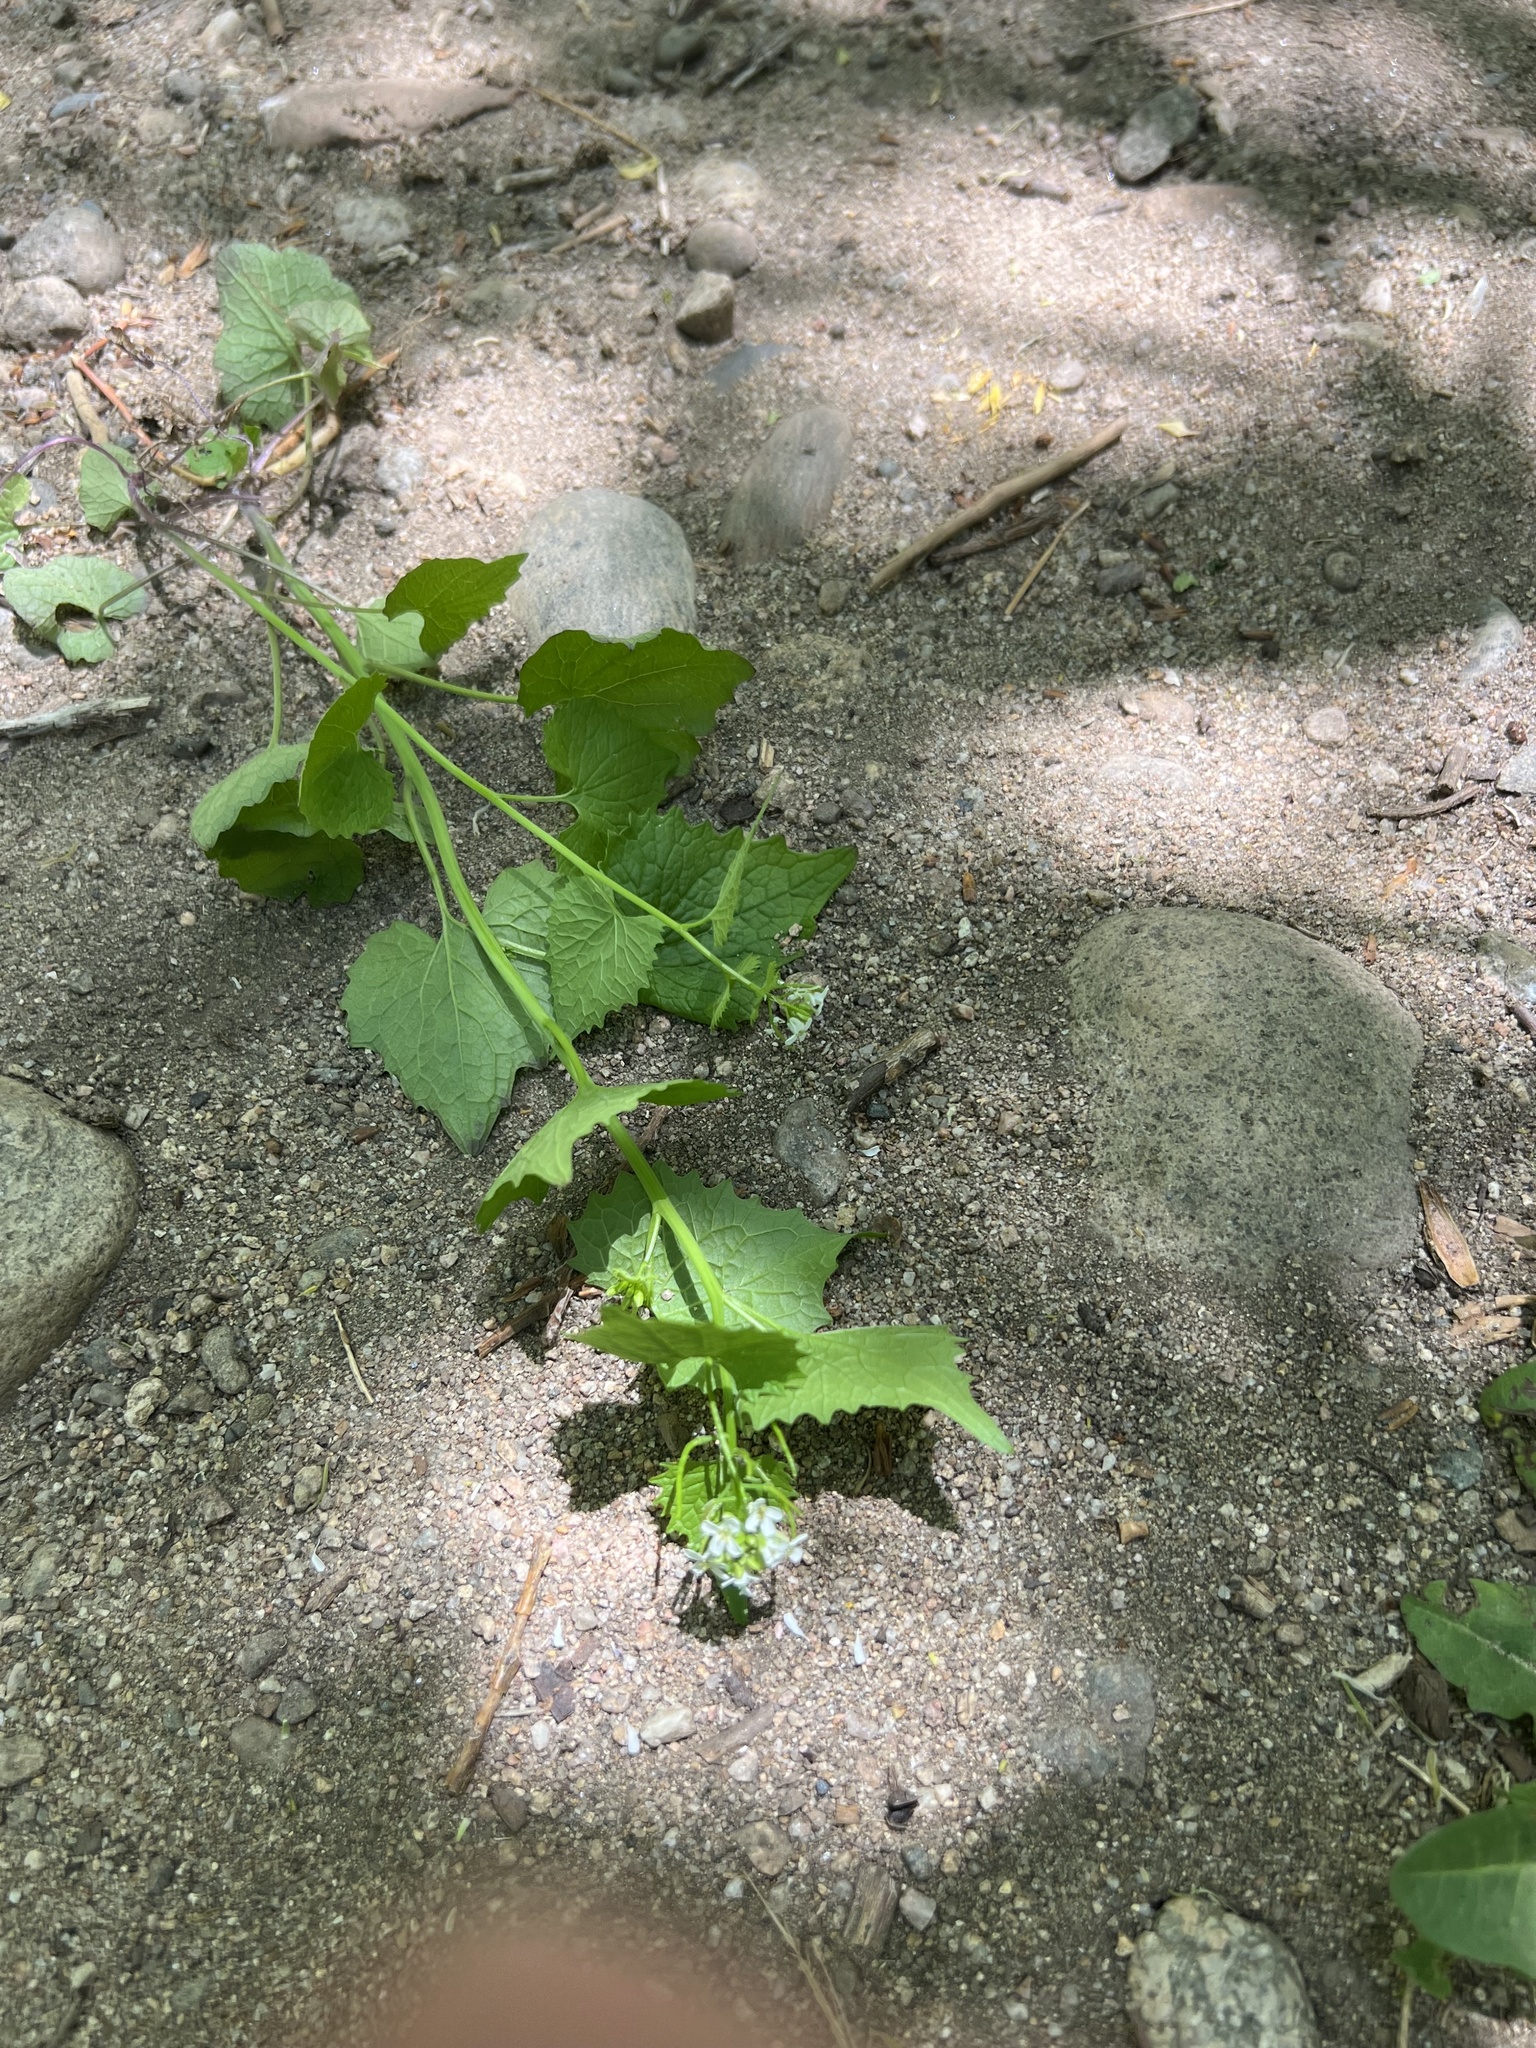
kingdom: Plantae
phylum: Tracheophyta
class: Magnoliopsida
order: Brassicales
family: Brassicaceae
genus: Alliaria
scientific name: Alliaria petiolata
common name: Garlic mustard
